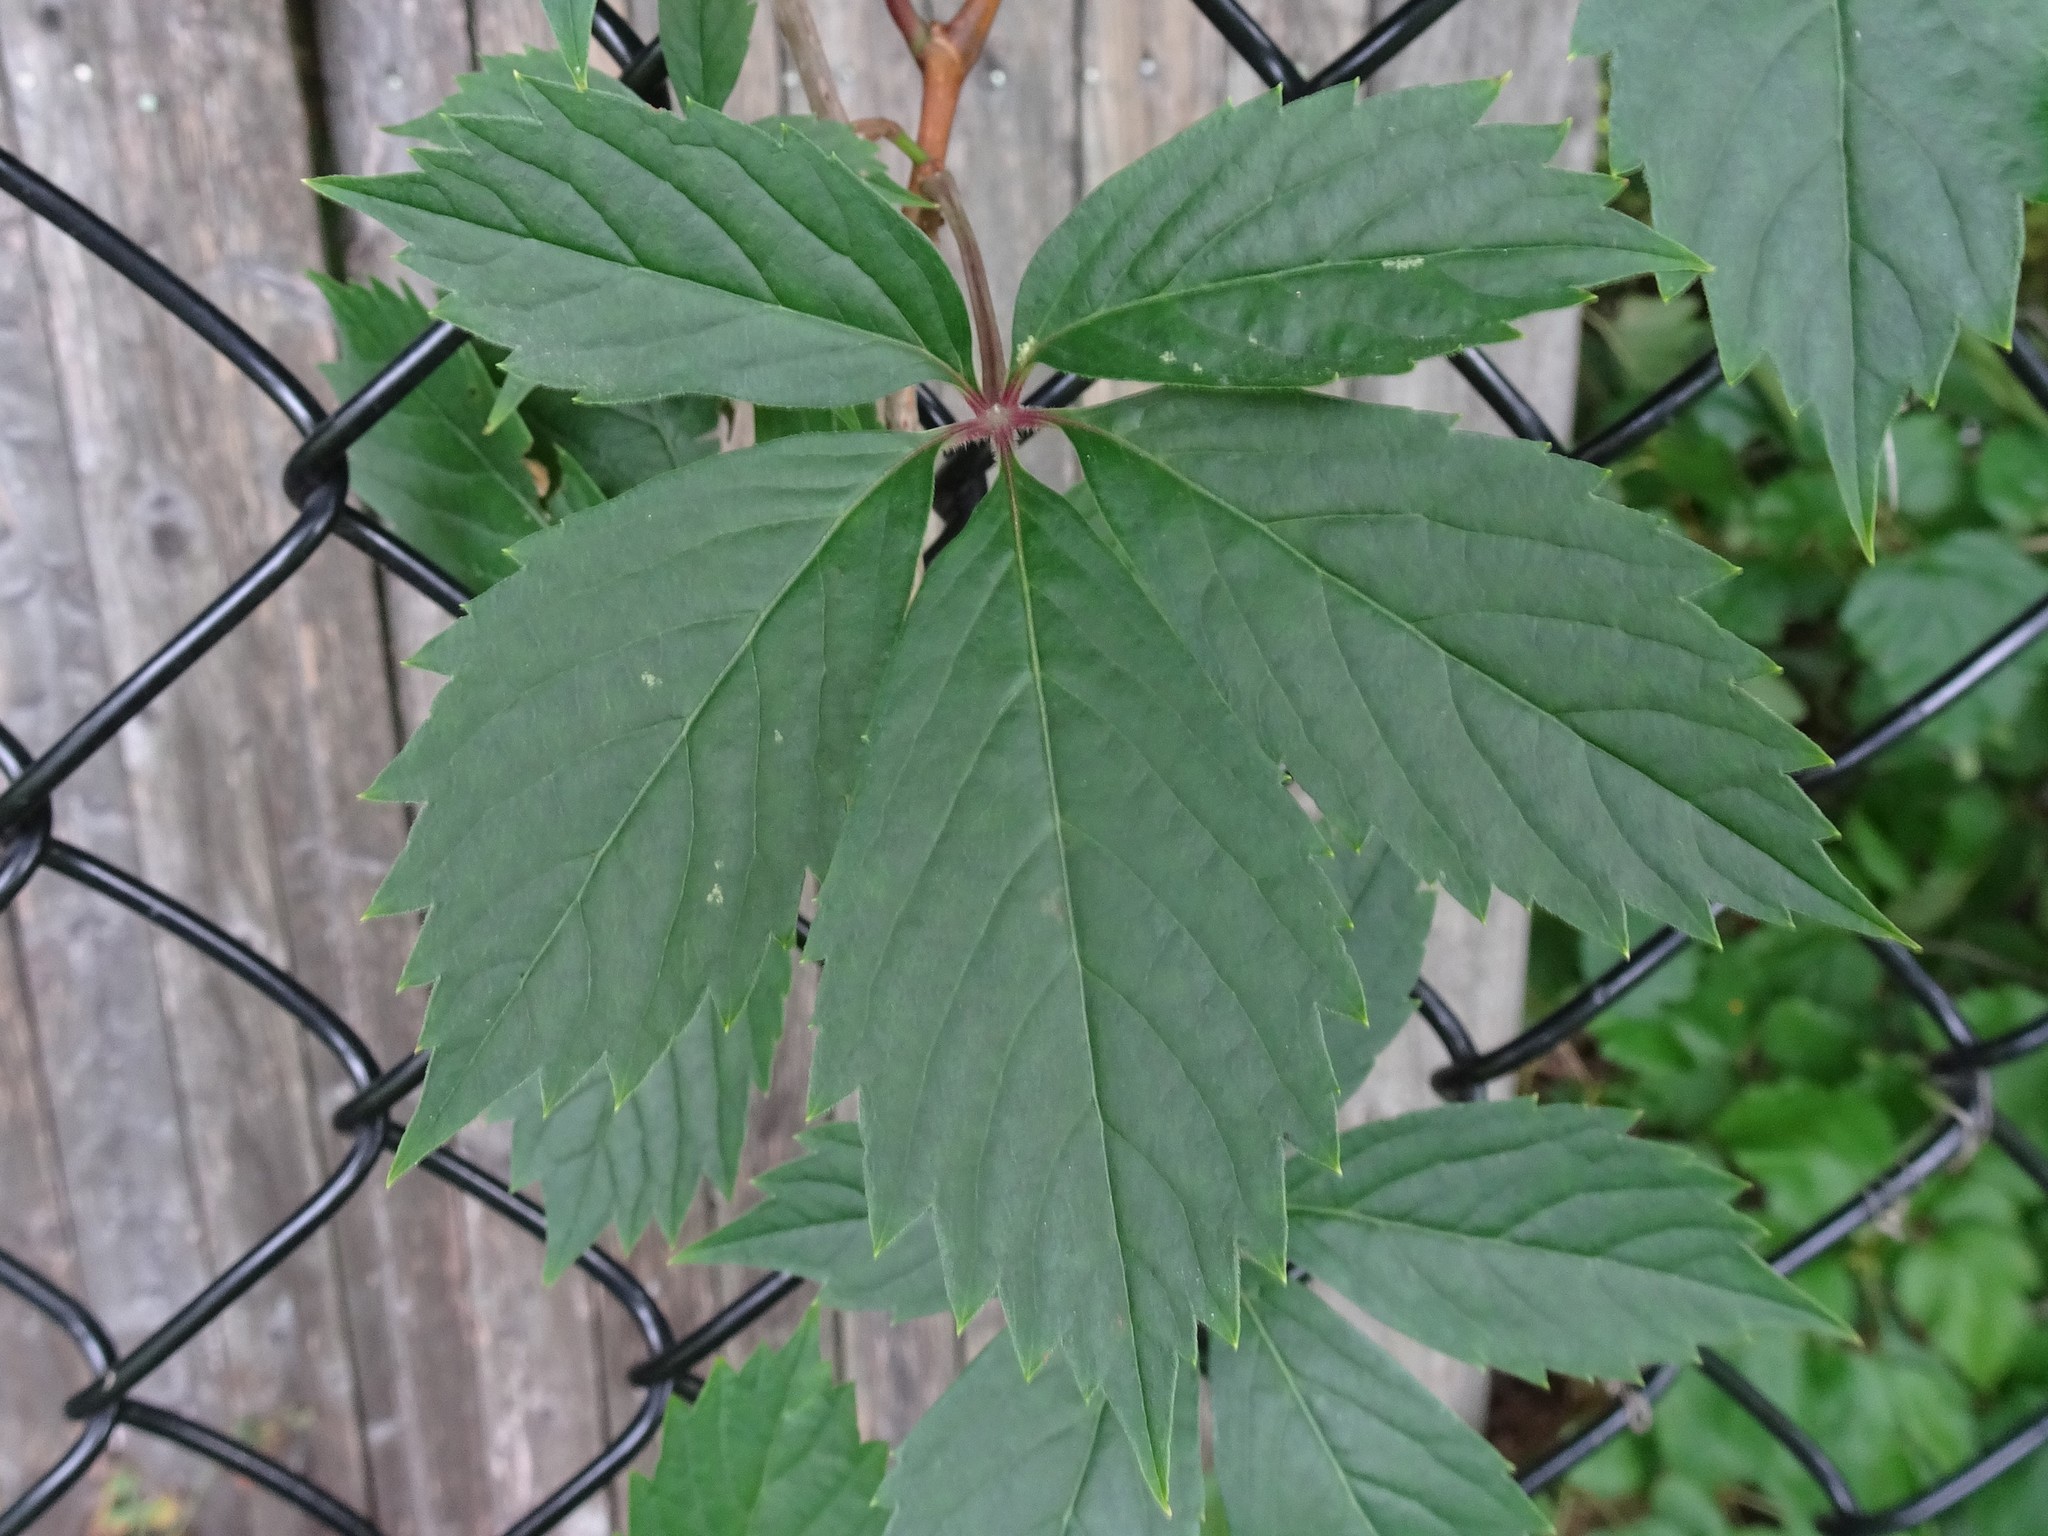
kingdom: Plantae
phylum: Tracheophyta
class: Magnoliopsida
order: Vitales
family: Vitaceae
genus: Parthenocissus
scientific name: Parthenocissus quinquefolia
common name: Virginia-creeper
